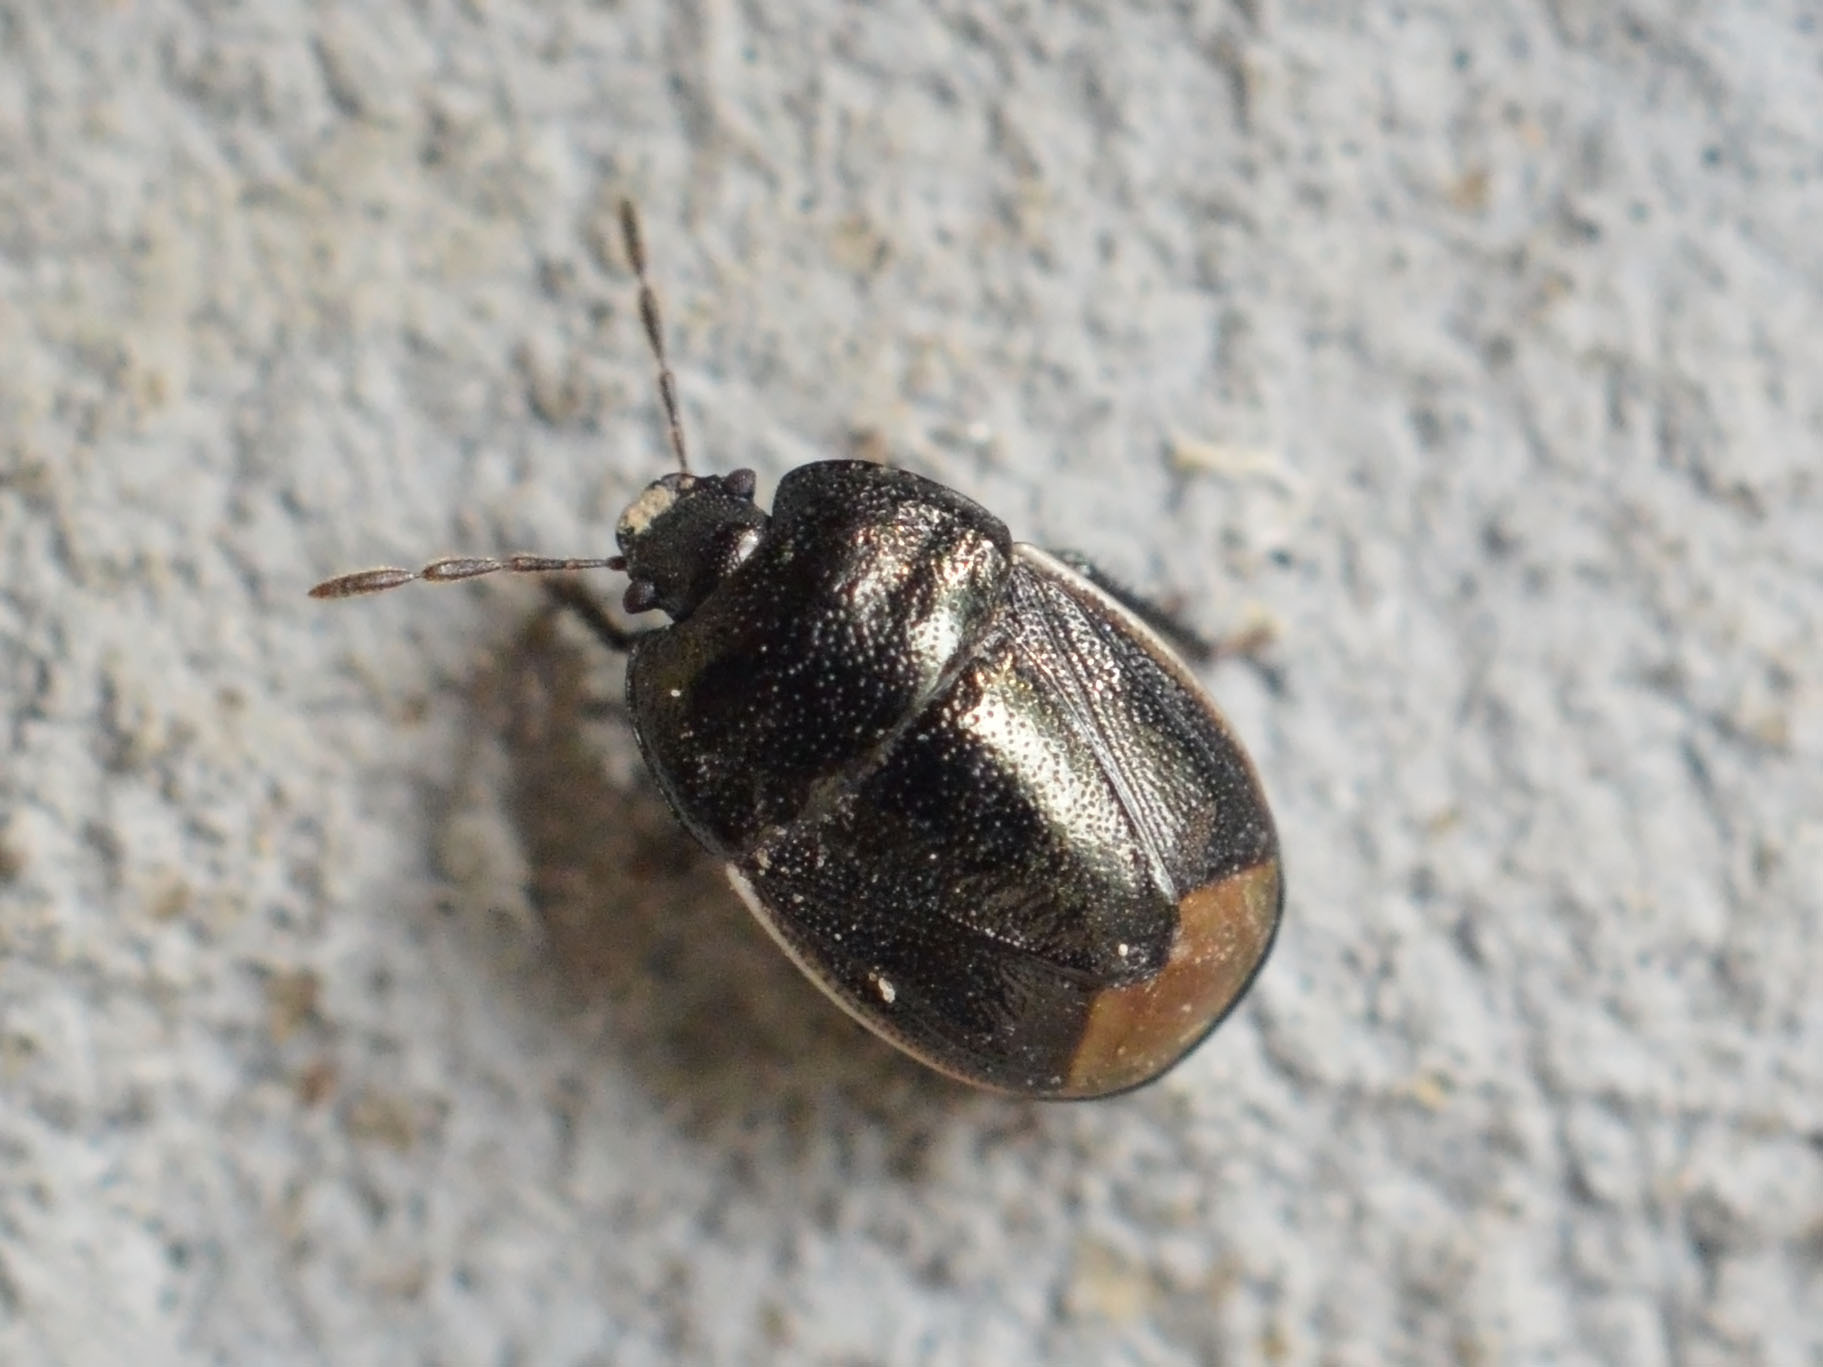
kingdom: Animalia
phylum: Arthropoda
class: Insecta
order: Hemiptera
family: Cydnidae
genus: Legnotus
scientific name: Legnotus limbosus
